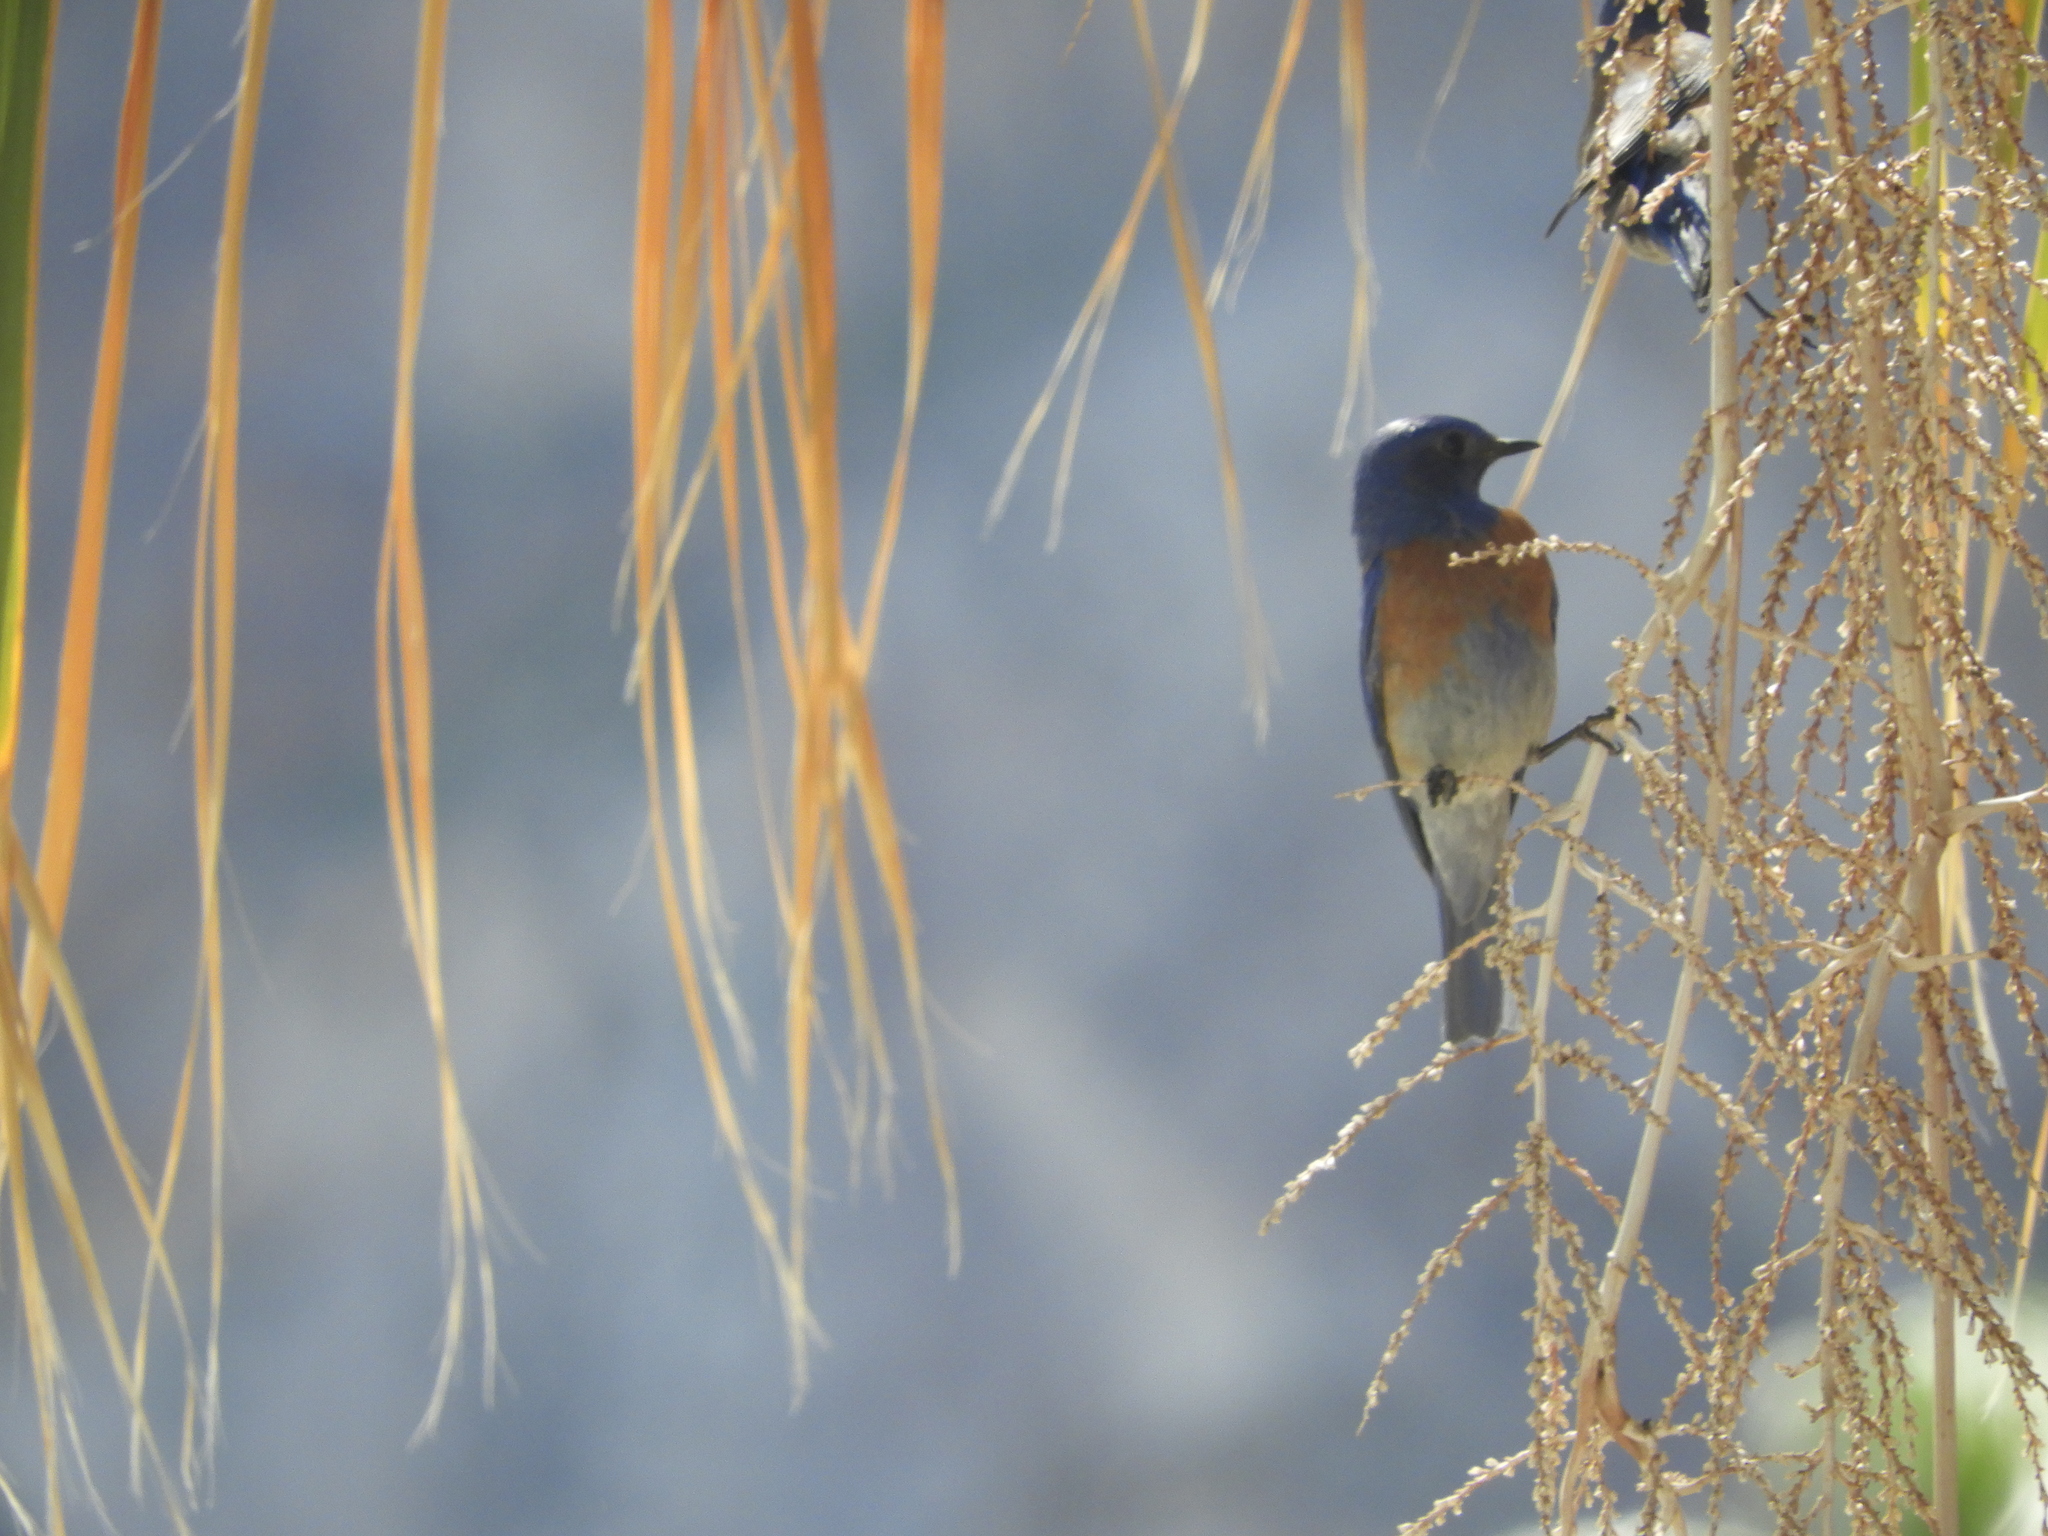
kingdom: Animalia
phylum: Chordata
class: Aves
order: Passeriformes
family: Turdidae
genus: Sialia
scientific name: Sialia mexicana
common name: Western bluebird
